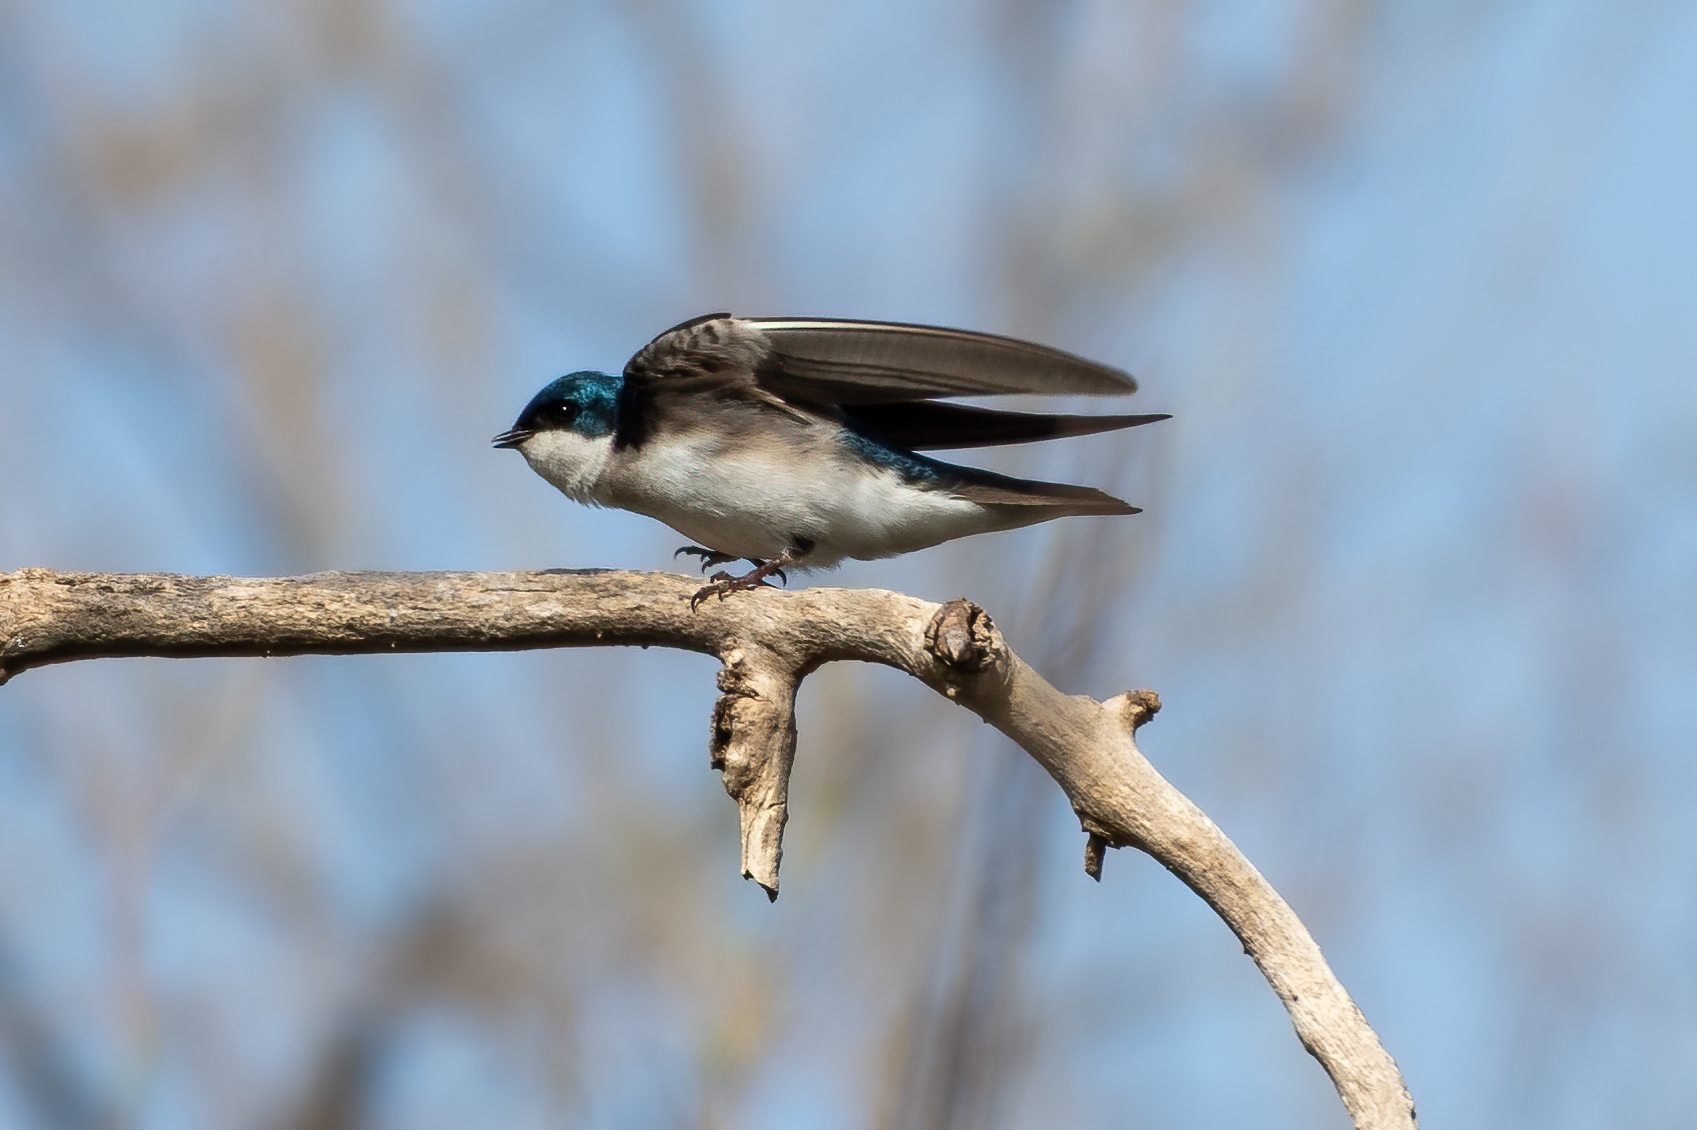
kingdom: Animalia
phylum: Chordata
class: Aves
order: Passeriformes
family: Hirundinidae
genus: Tachycineta
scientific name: Tachycineta bicolor
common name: Tree swallow
